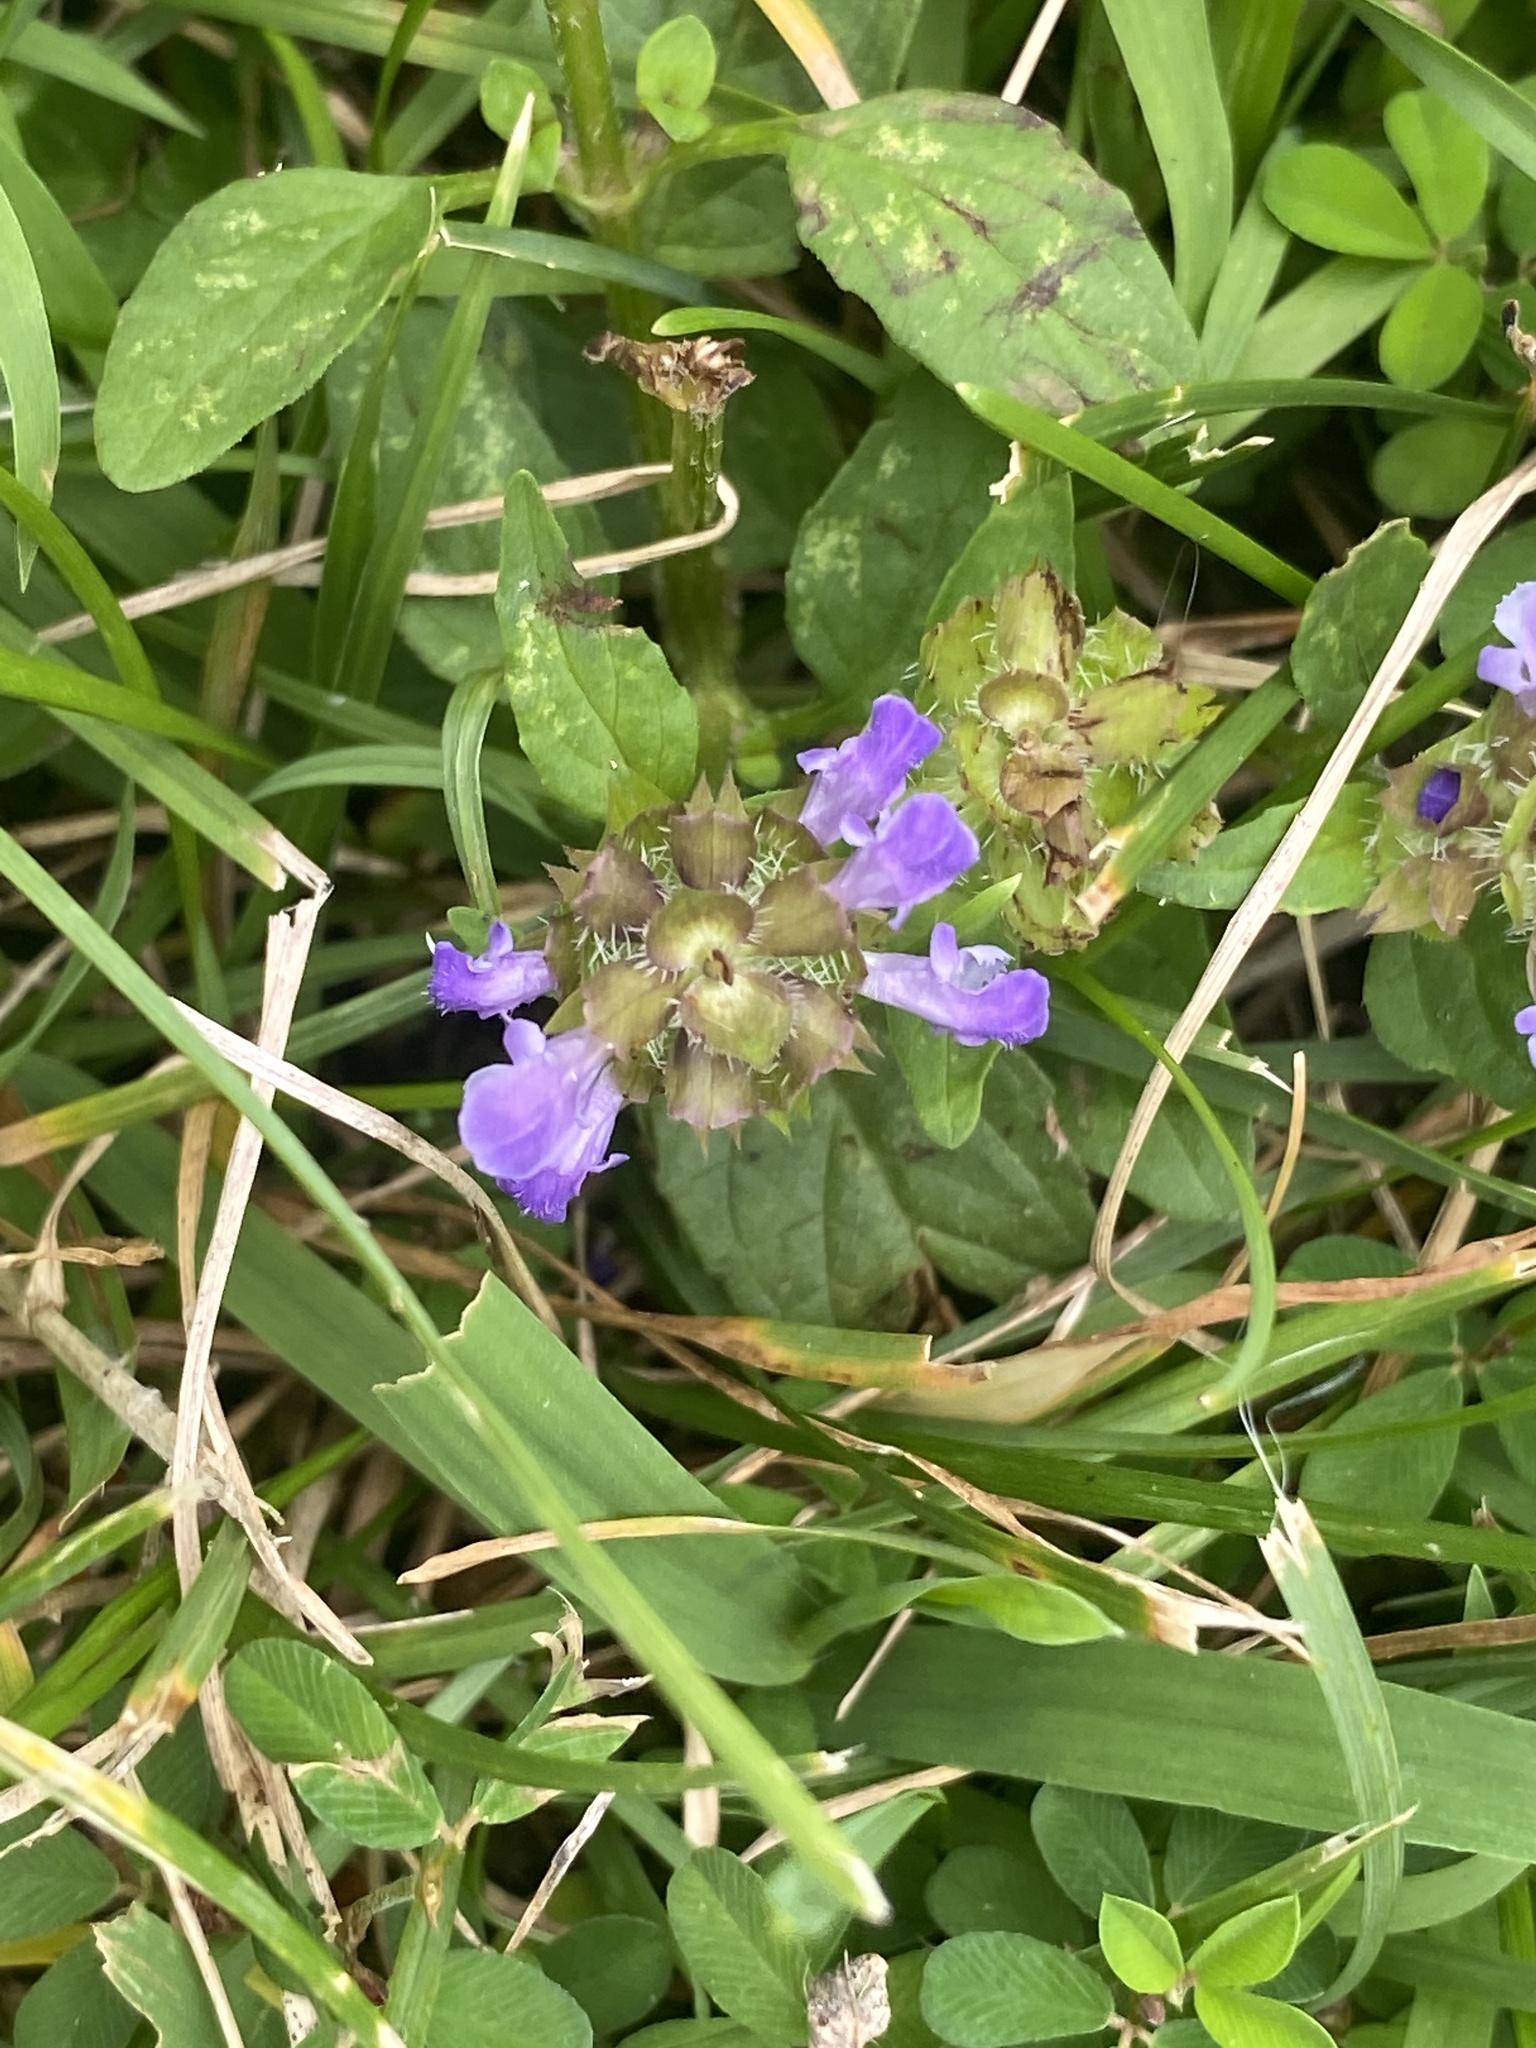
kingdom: Plantae
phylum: Tracheophyta
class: Magnoliopsida
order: Lamiales
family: Lamiaceae
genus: Prunella
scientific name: Prunella vulgaris
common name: Heal-all
